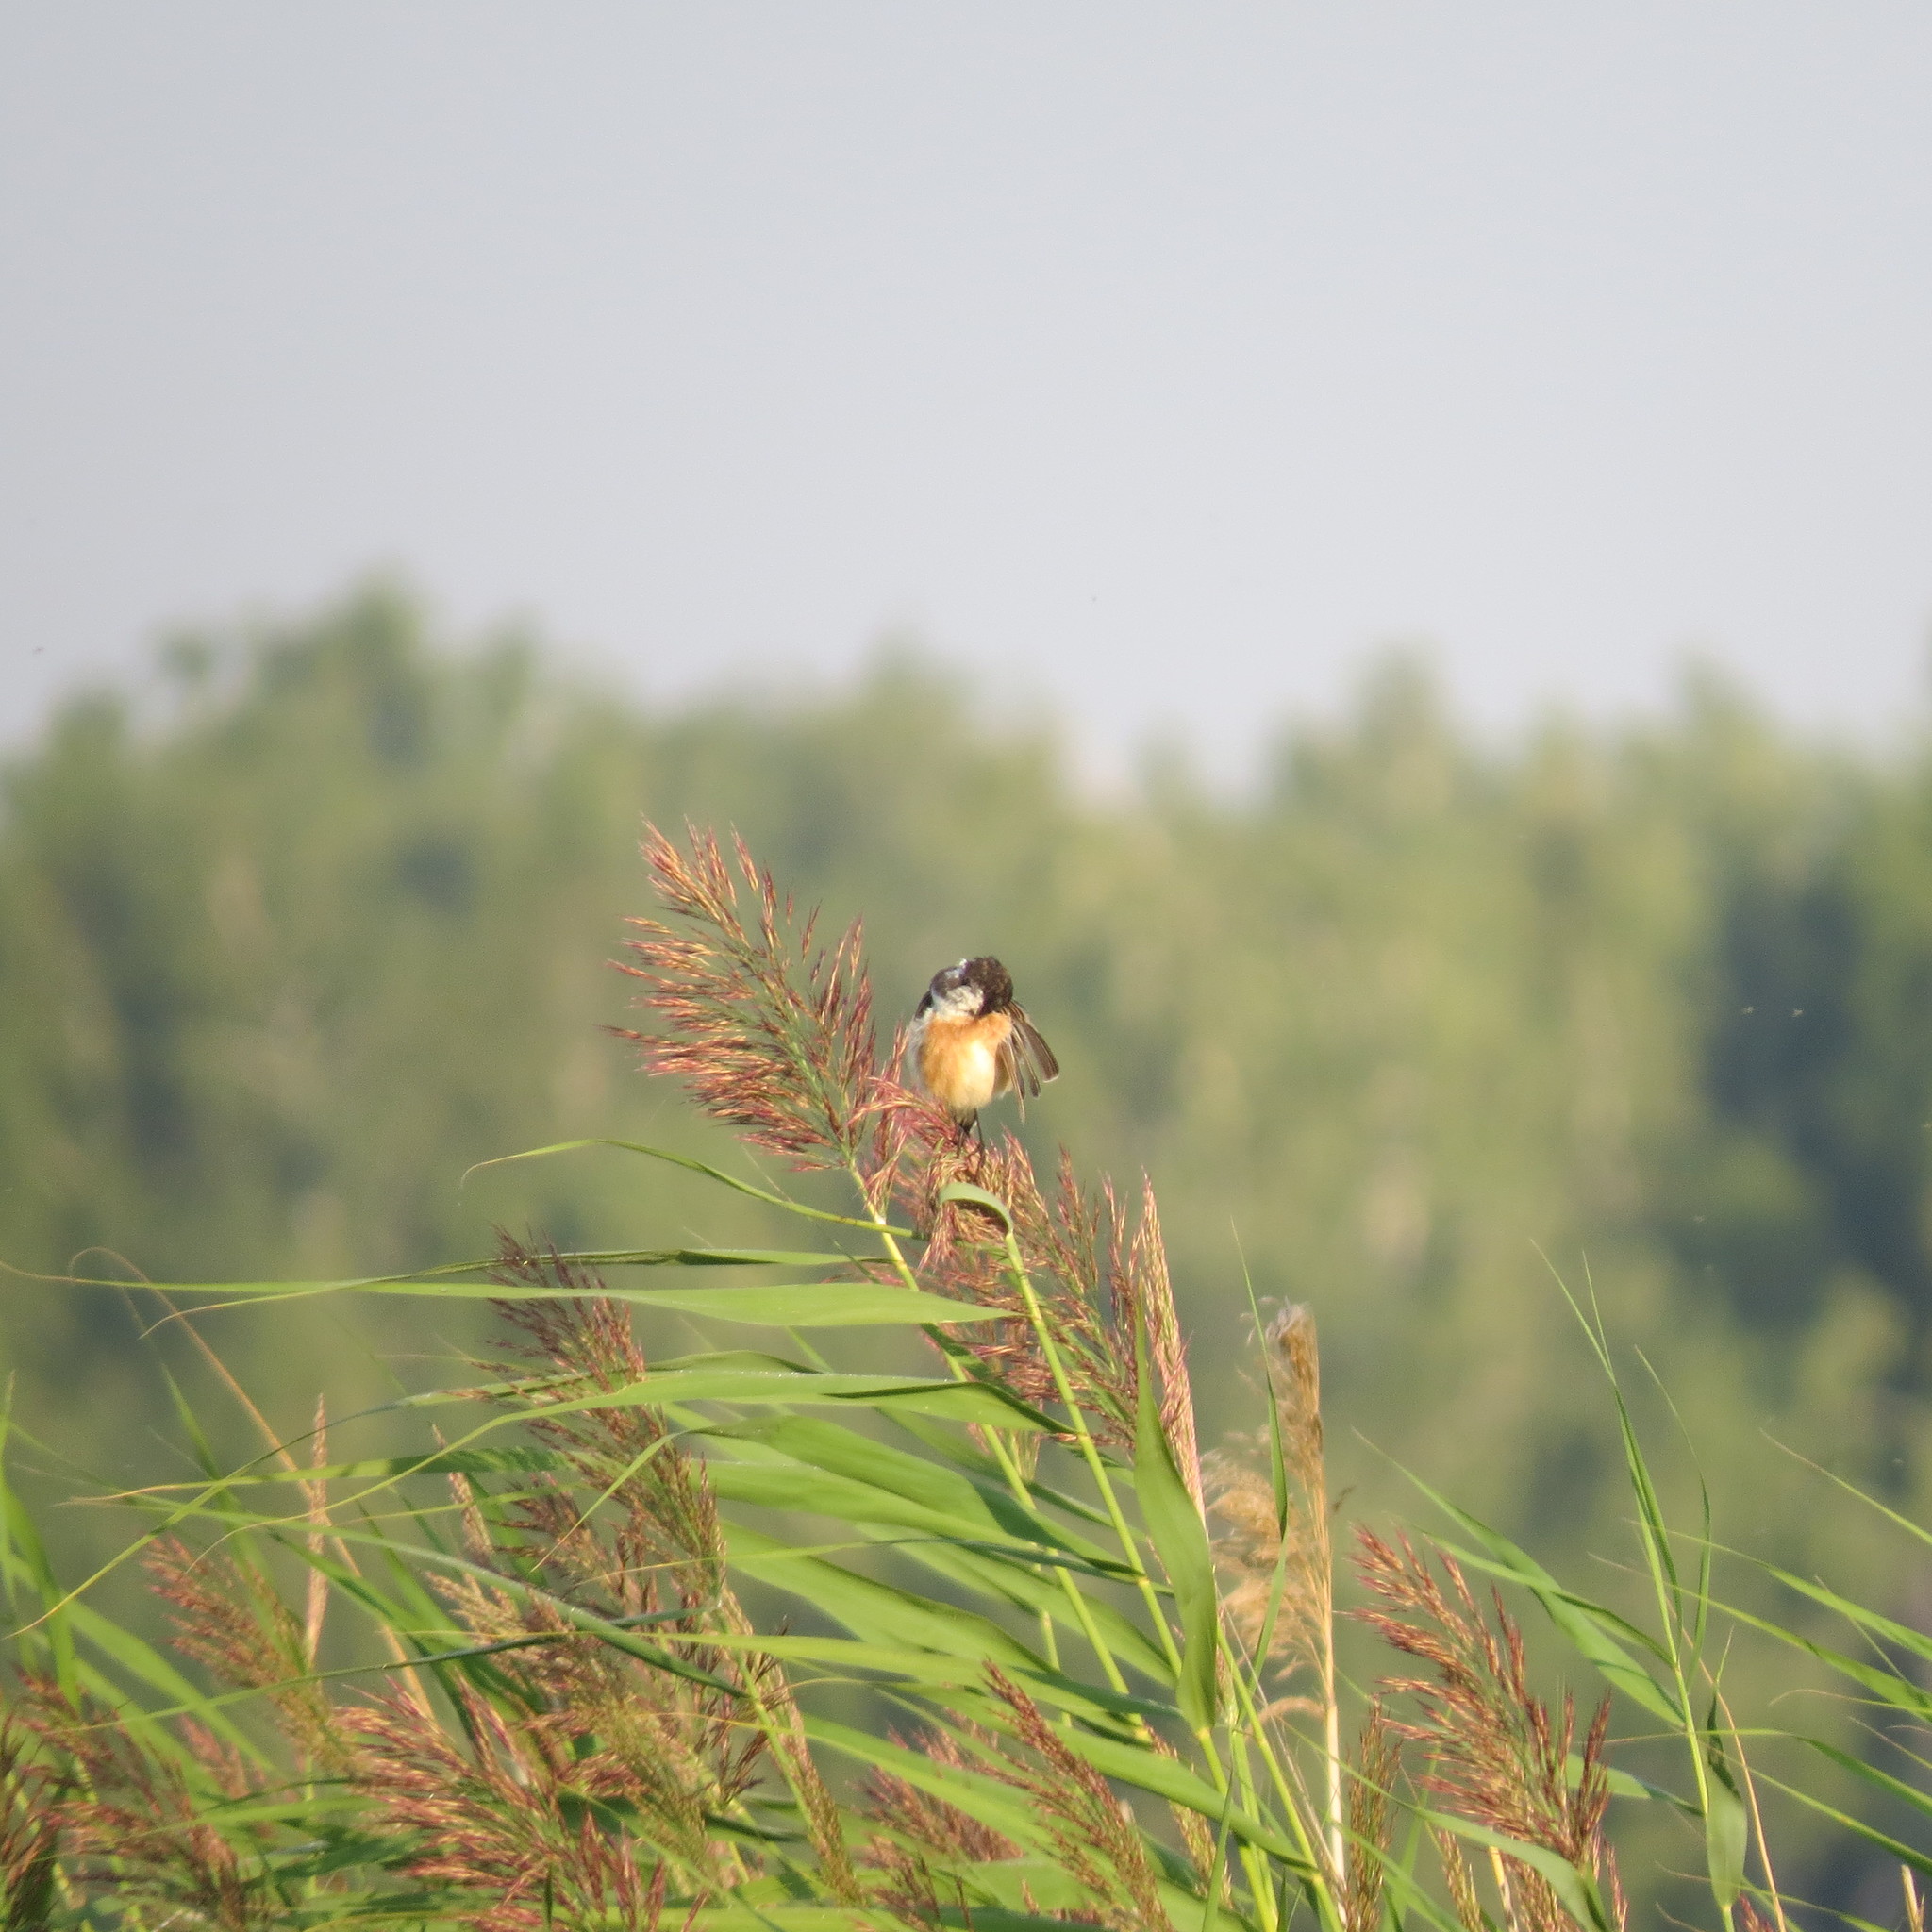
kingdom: Animalia
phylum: Chordata
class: Aves
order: Passeriformes
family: Muscicapidae
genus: Saxicola
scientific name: Saxicola maurus
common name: Siberian stonechat
